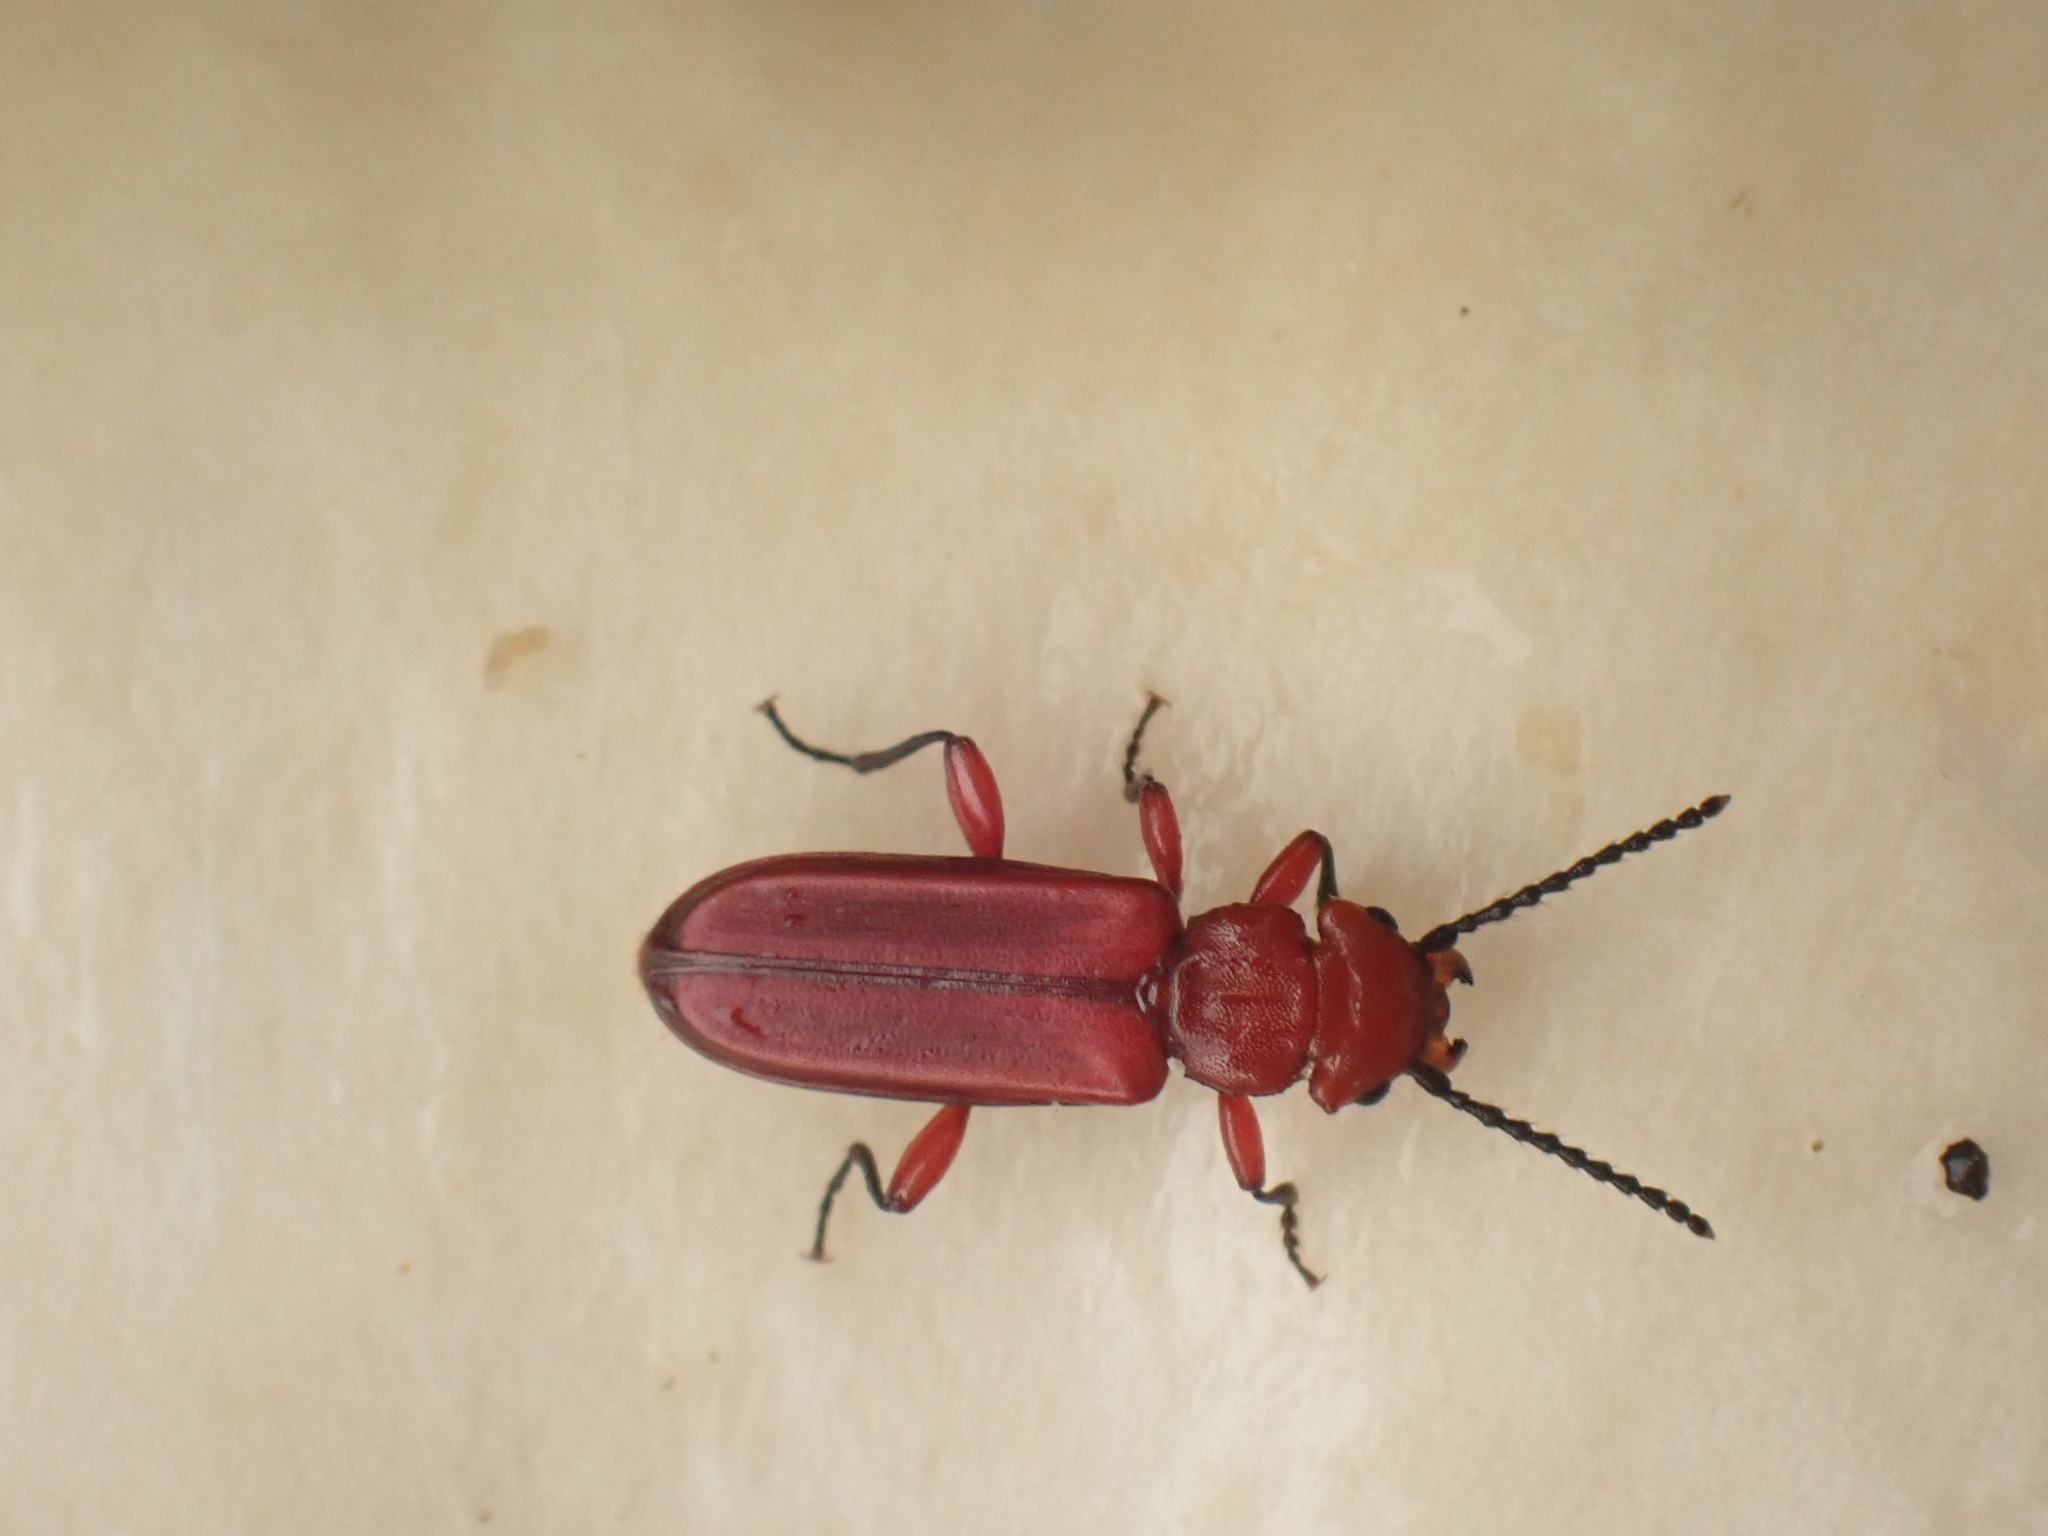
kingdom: Animalia
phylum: Arthropoda
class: Insecta
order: Coleoptera
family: Cucujidae
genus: Cucujus
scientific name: Cucujus clavipes
